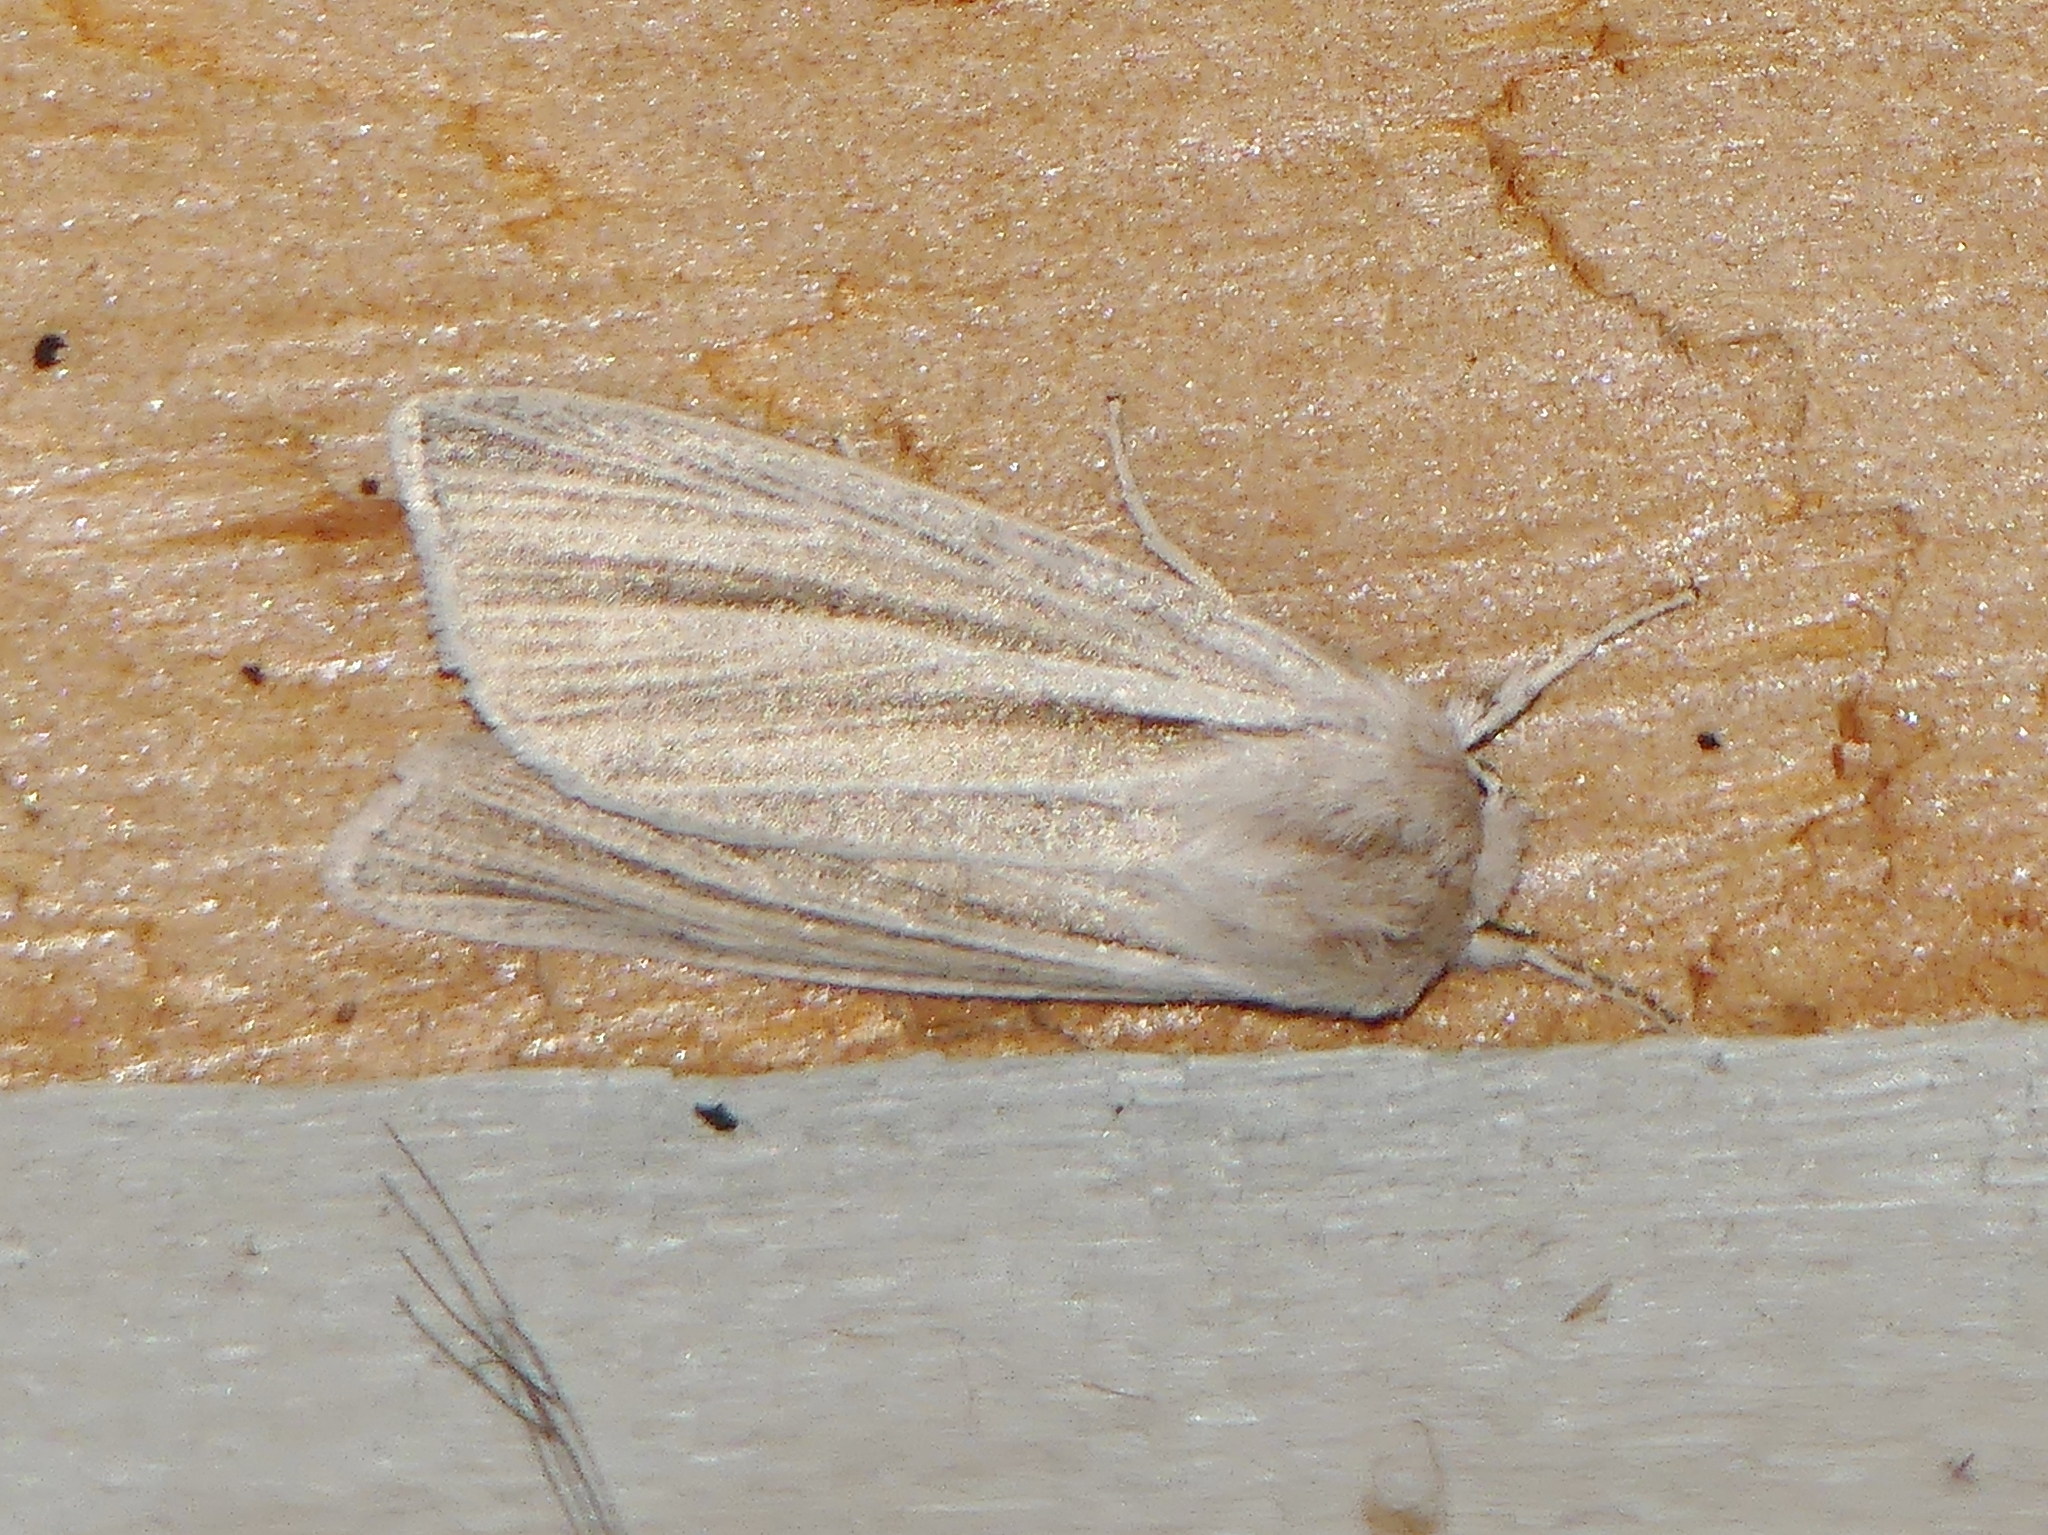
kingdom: Animalia
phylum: Arthropoda
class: Insecta
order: Lepidoptera
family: Noctuidae
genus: Acronicta
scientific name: Acronicta insularis
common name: Henry's marsh moth
